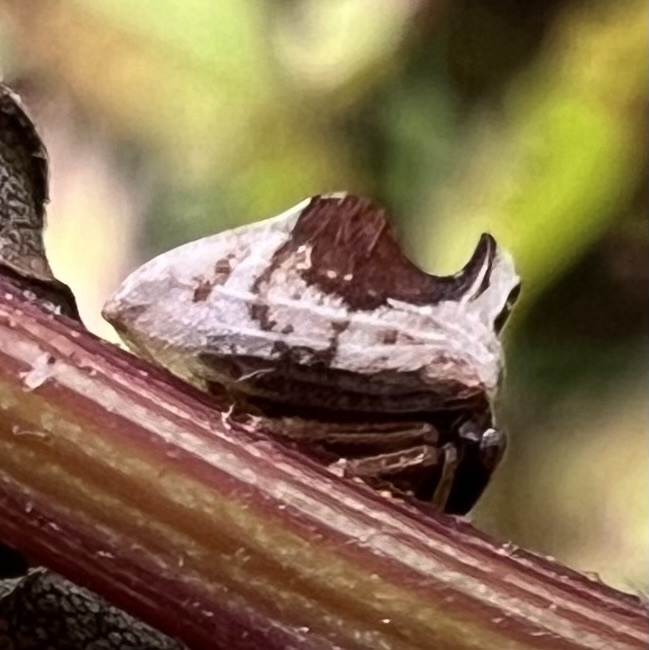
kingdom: Animalia
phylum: Arthropoda
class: Insecta
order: Hemiptera
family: Membracidae
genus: Entylia
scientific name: Entylia carinata
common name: Keeled treehopper
